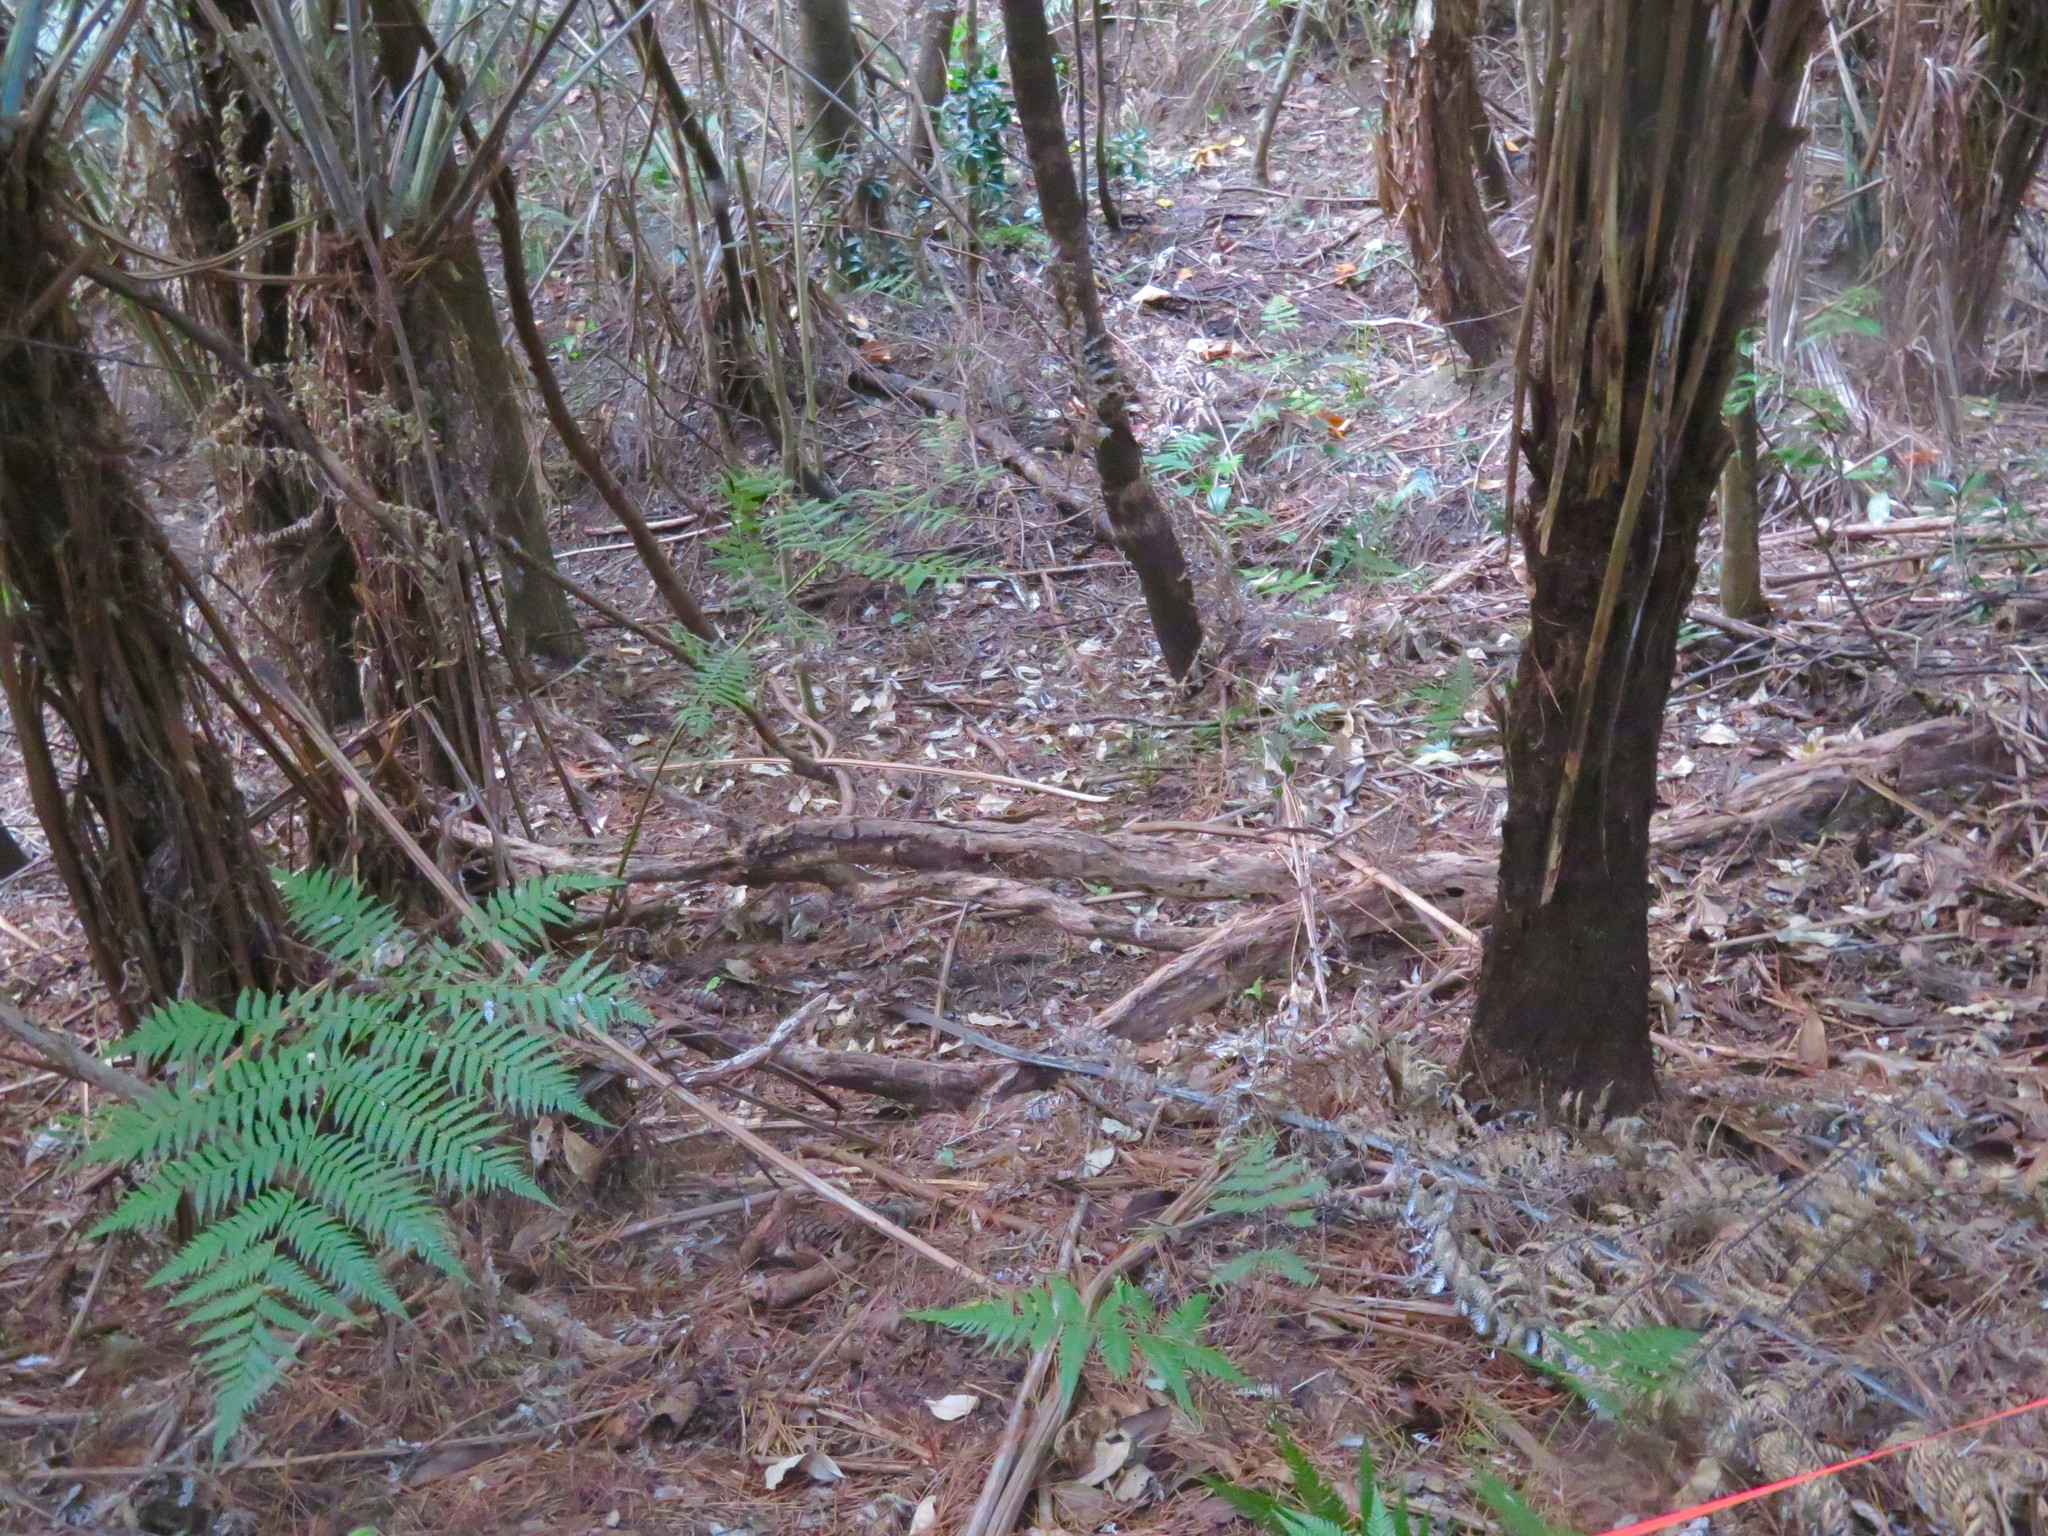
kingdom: Plantae
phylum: Tracheophyta
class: Liliopsida
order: Zingiberales
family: Zingiberaceae
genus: Hedychium
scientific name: Hedychium gardnerianum
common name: Himalayan ginger
